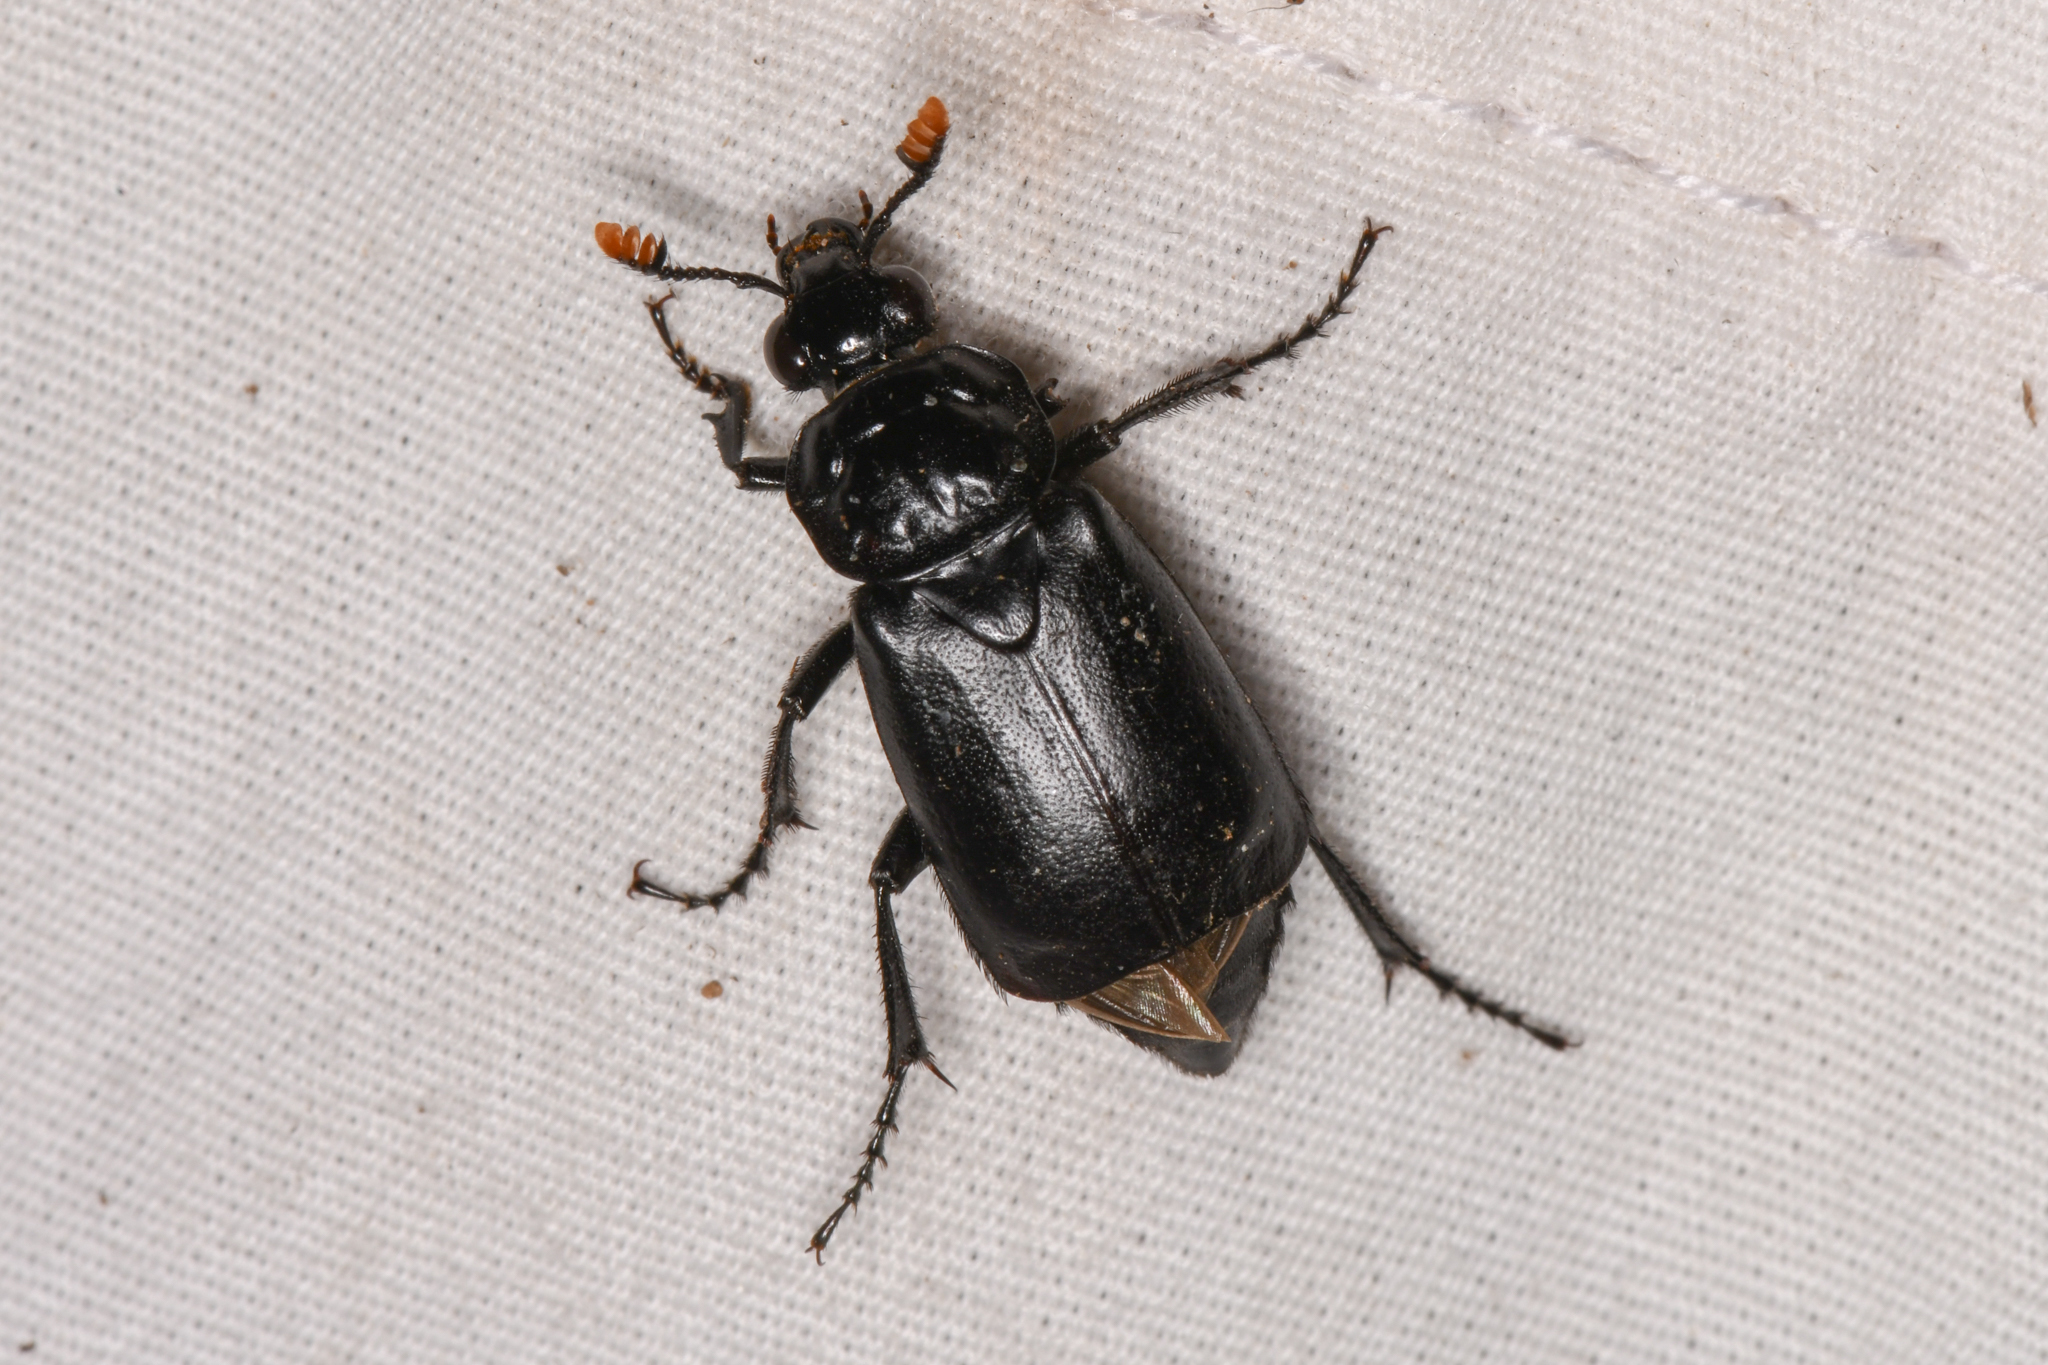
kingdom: Animalia
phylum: Arthropoda
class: Insecta
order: Coleoptera
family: Staphylinidae
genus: Nicrophorus
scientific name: Nicrophorus nigrita
